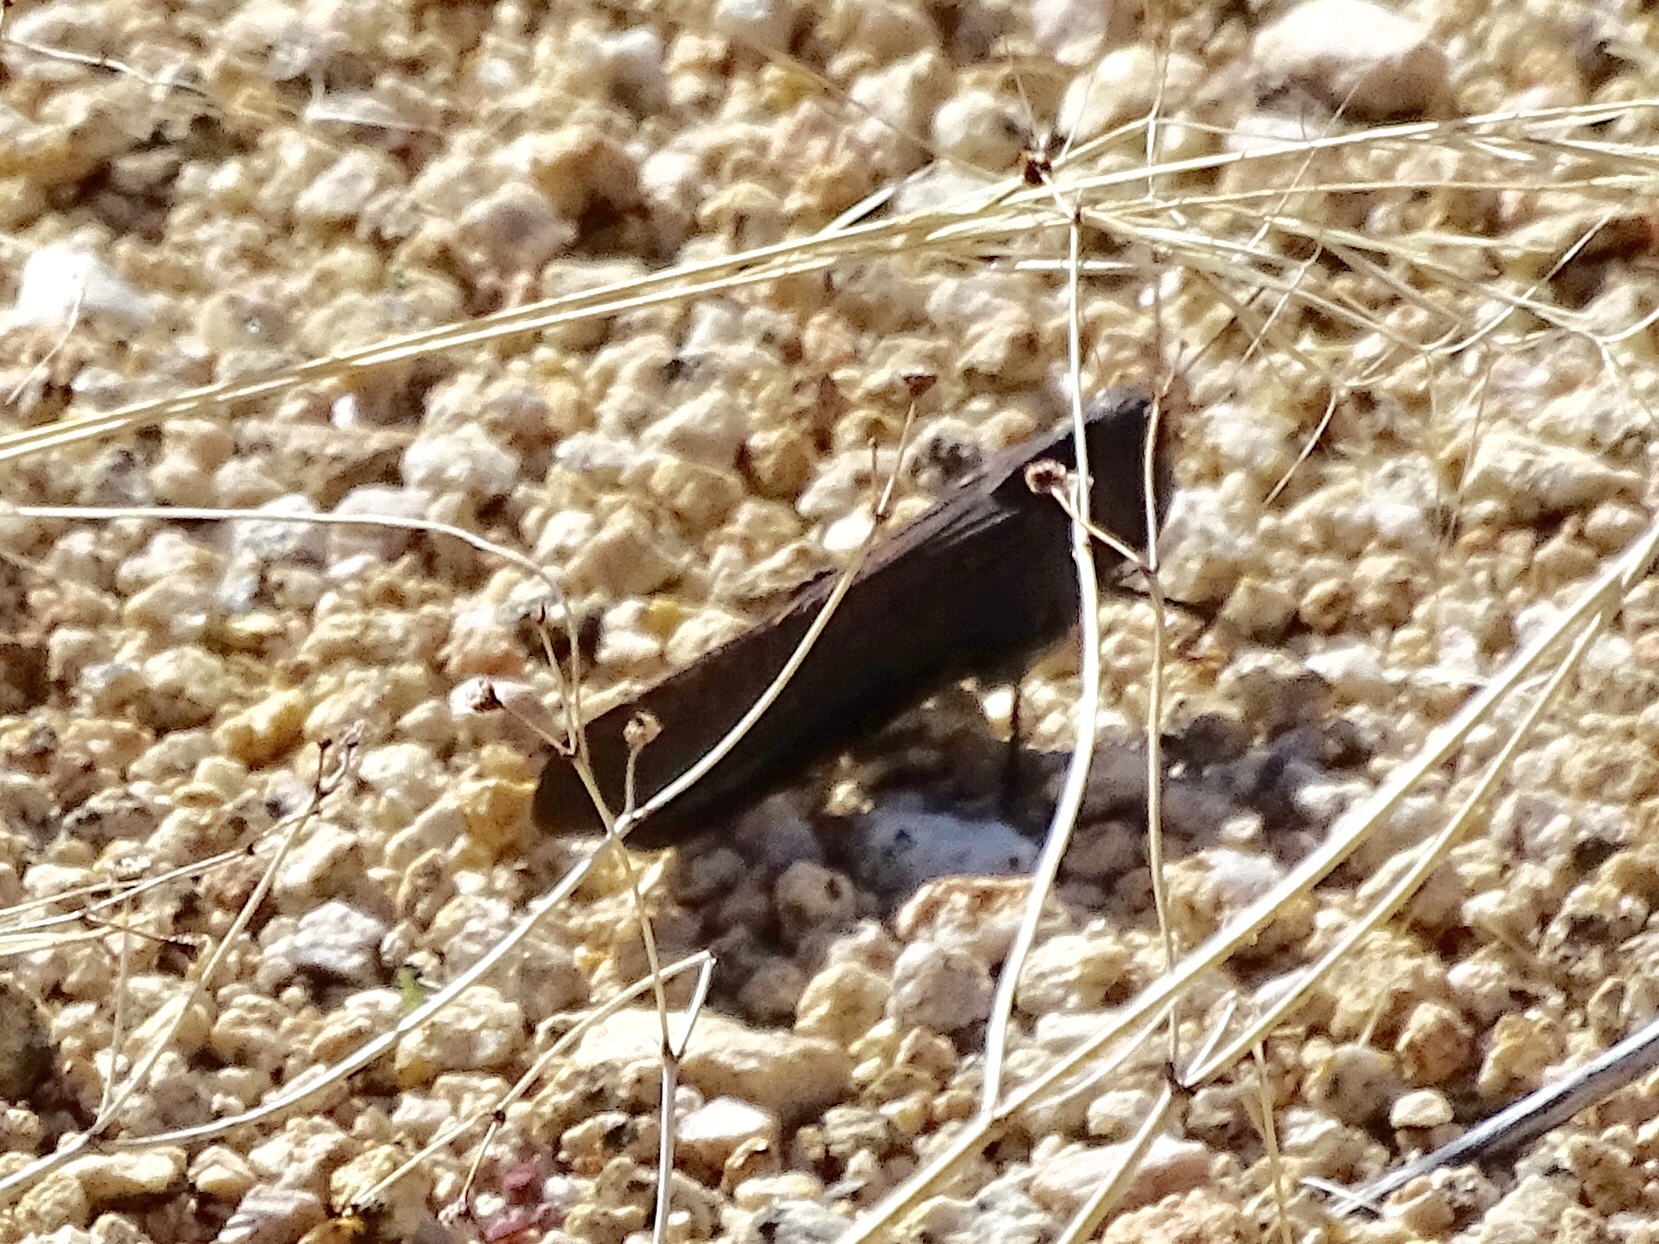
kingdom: Animalia
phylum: Arthropoda
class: Insecta
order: Orthoptera
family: Acrididae
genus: Arphia
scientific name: Arphia pseudo-nietana
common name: Red-winged grasshopper
